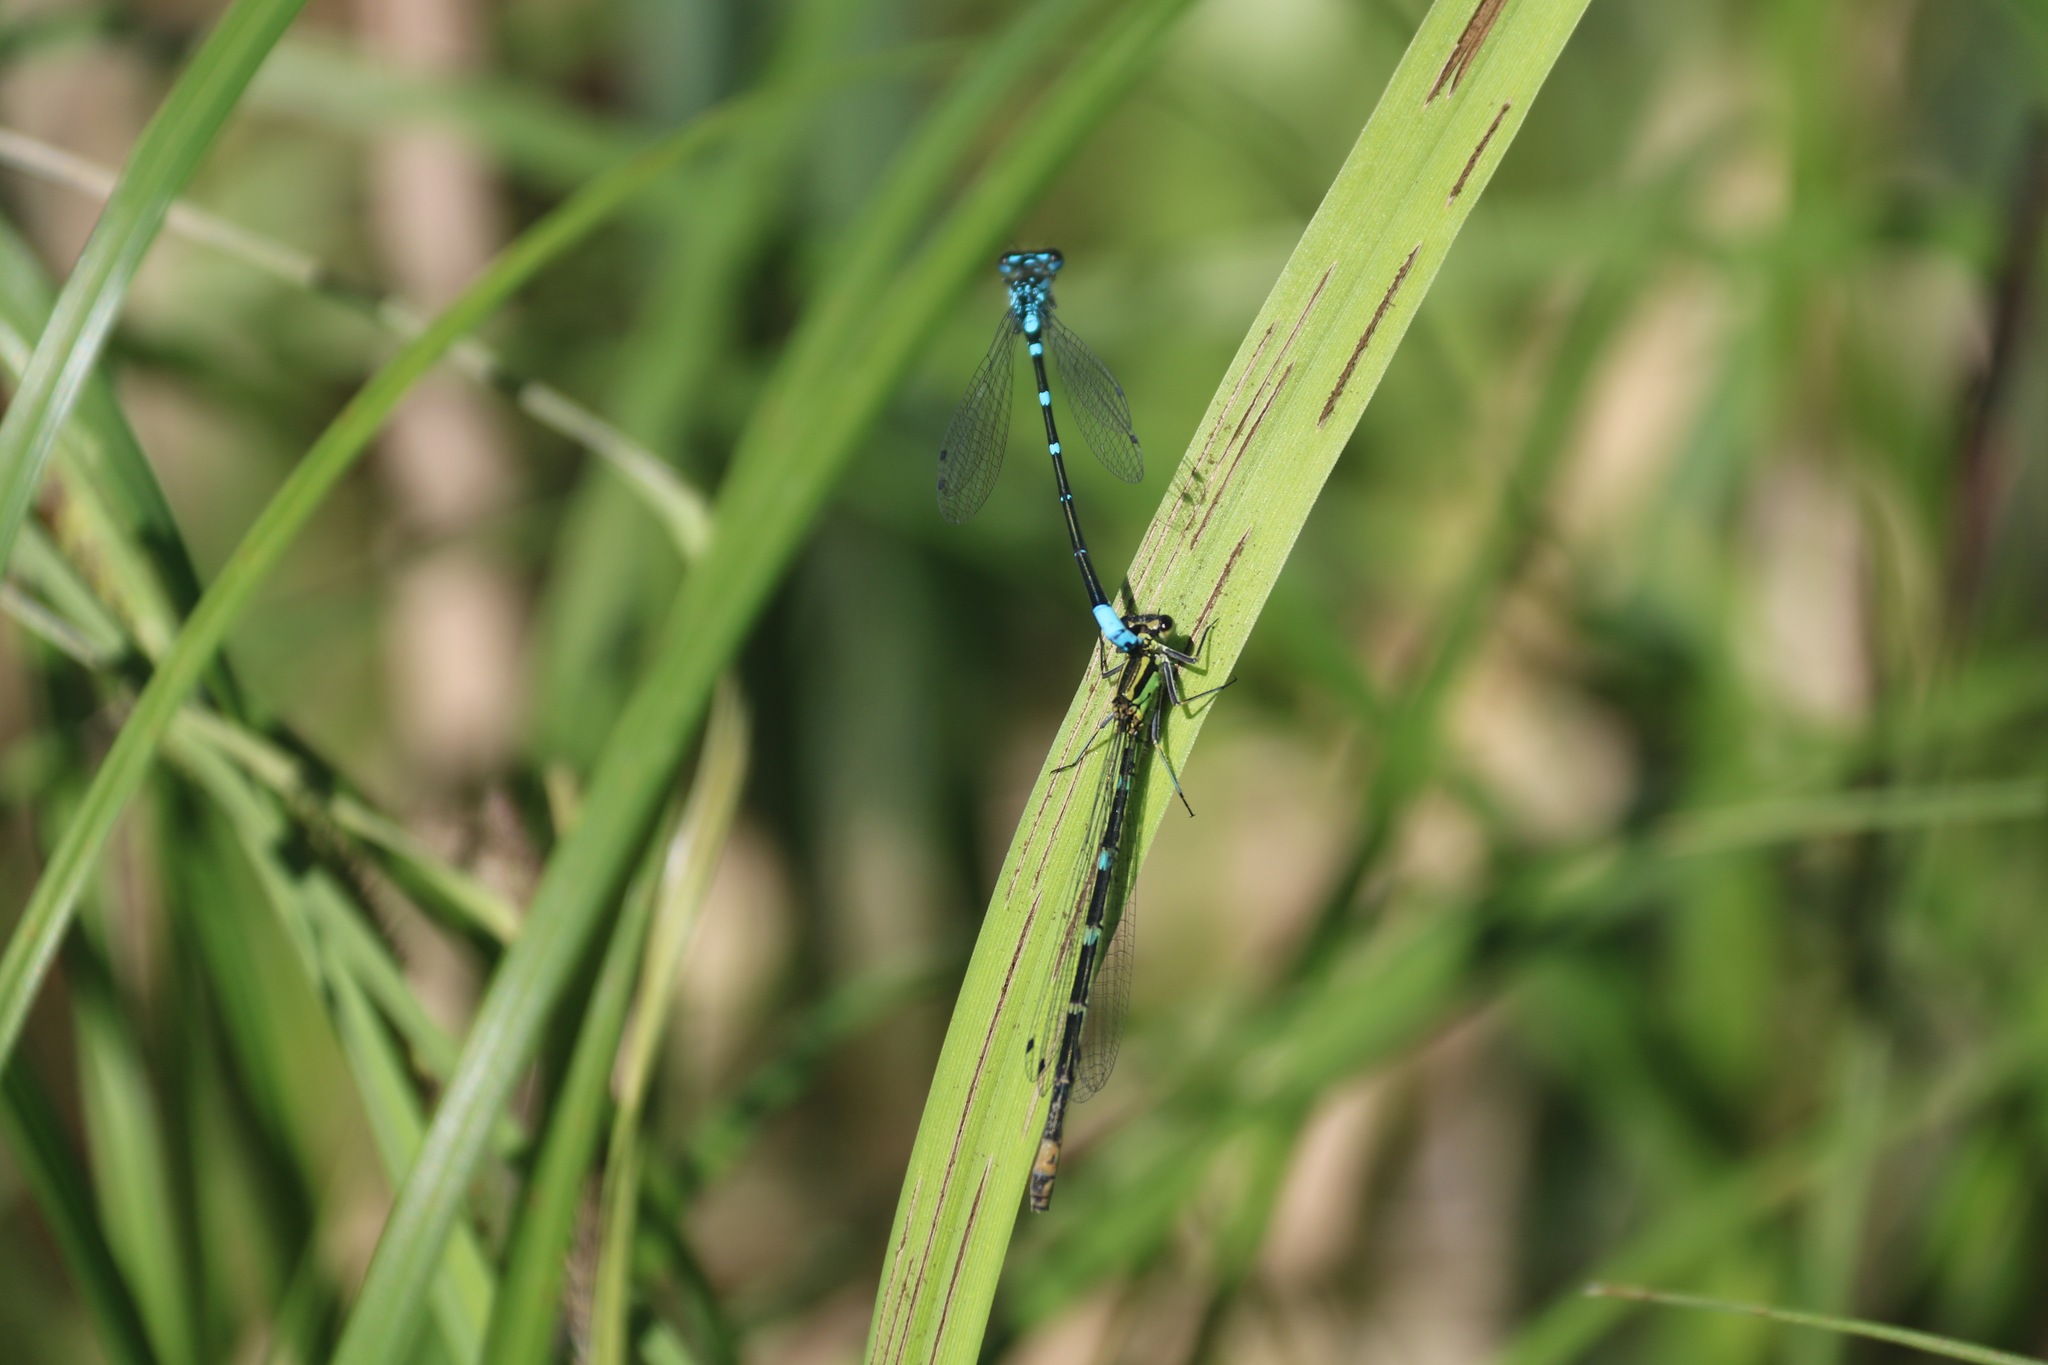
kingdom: Animalia
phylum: Arthropoda
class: Insecta
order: Odonata
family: Coenagrionidae
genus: Coenagrion
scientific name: Coenagrion pulchellum
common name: Variable bluet
